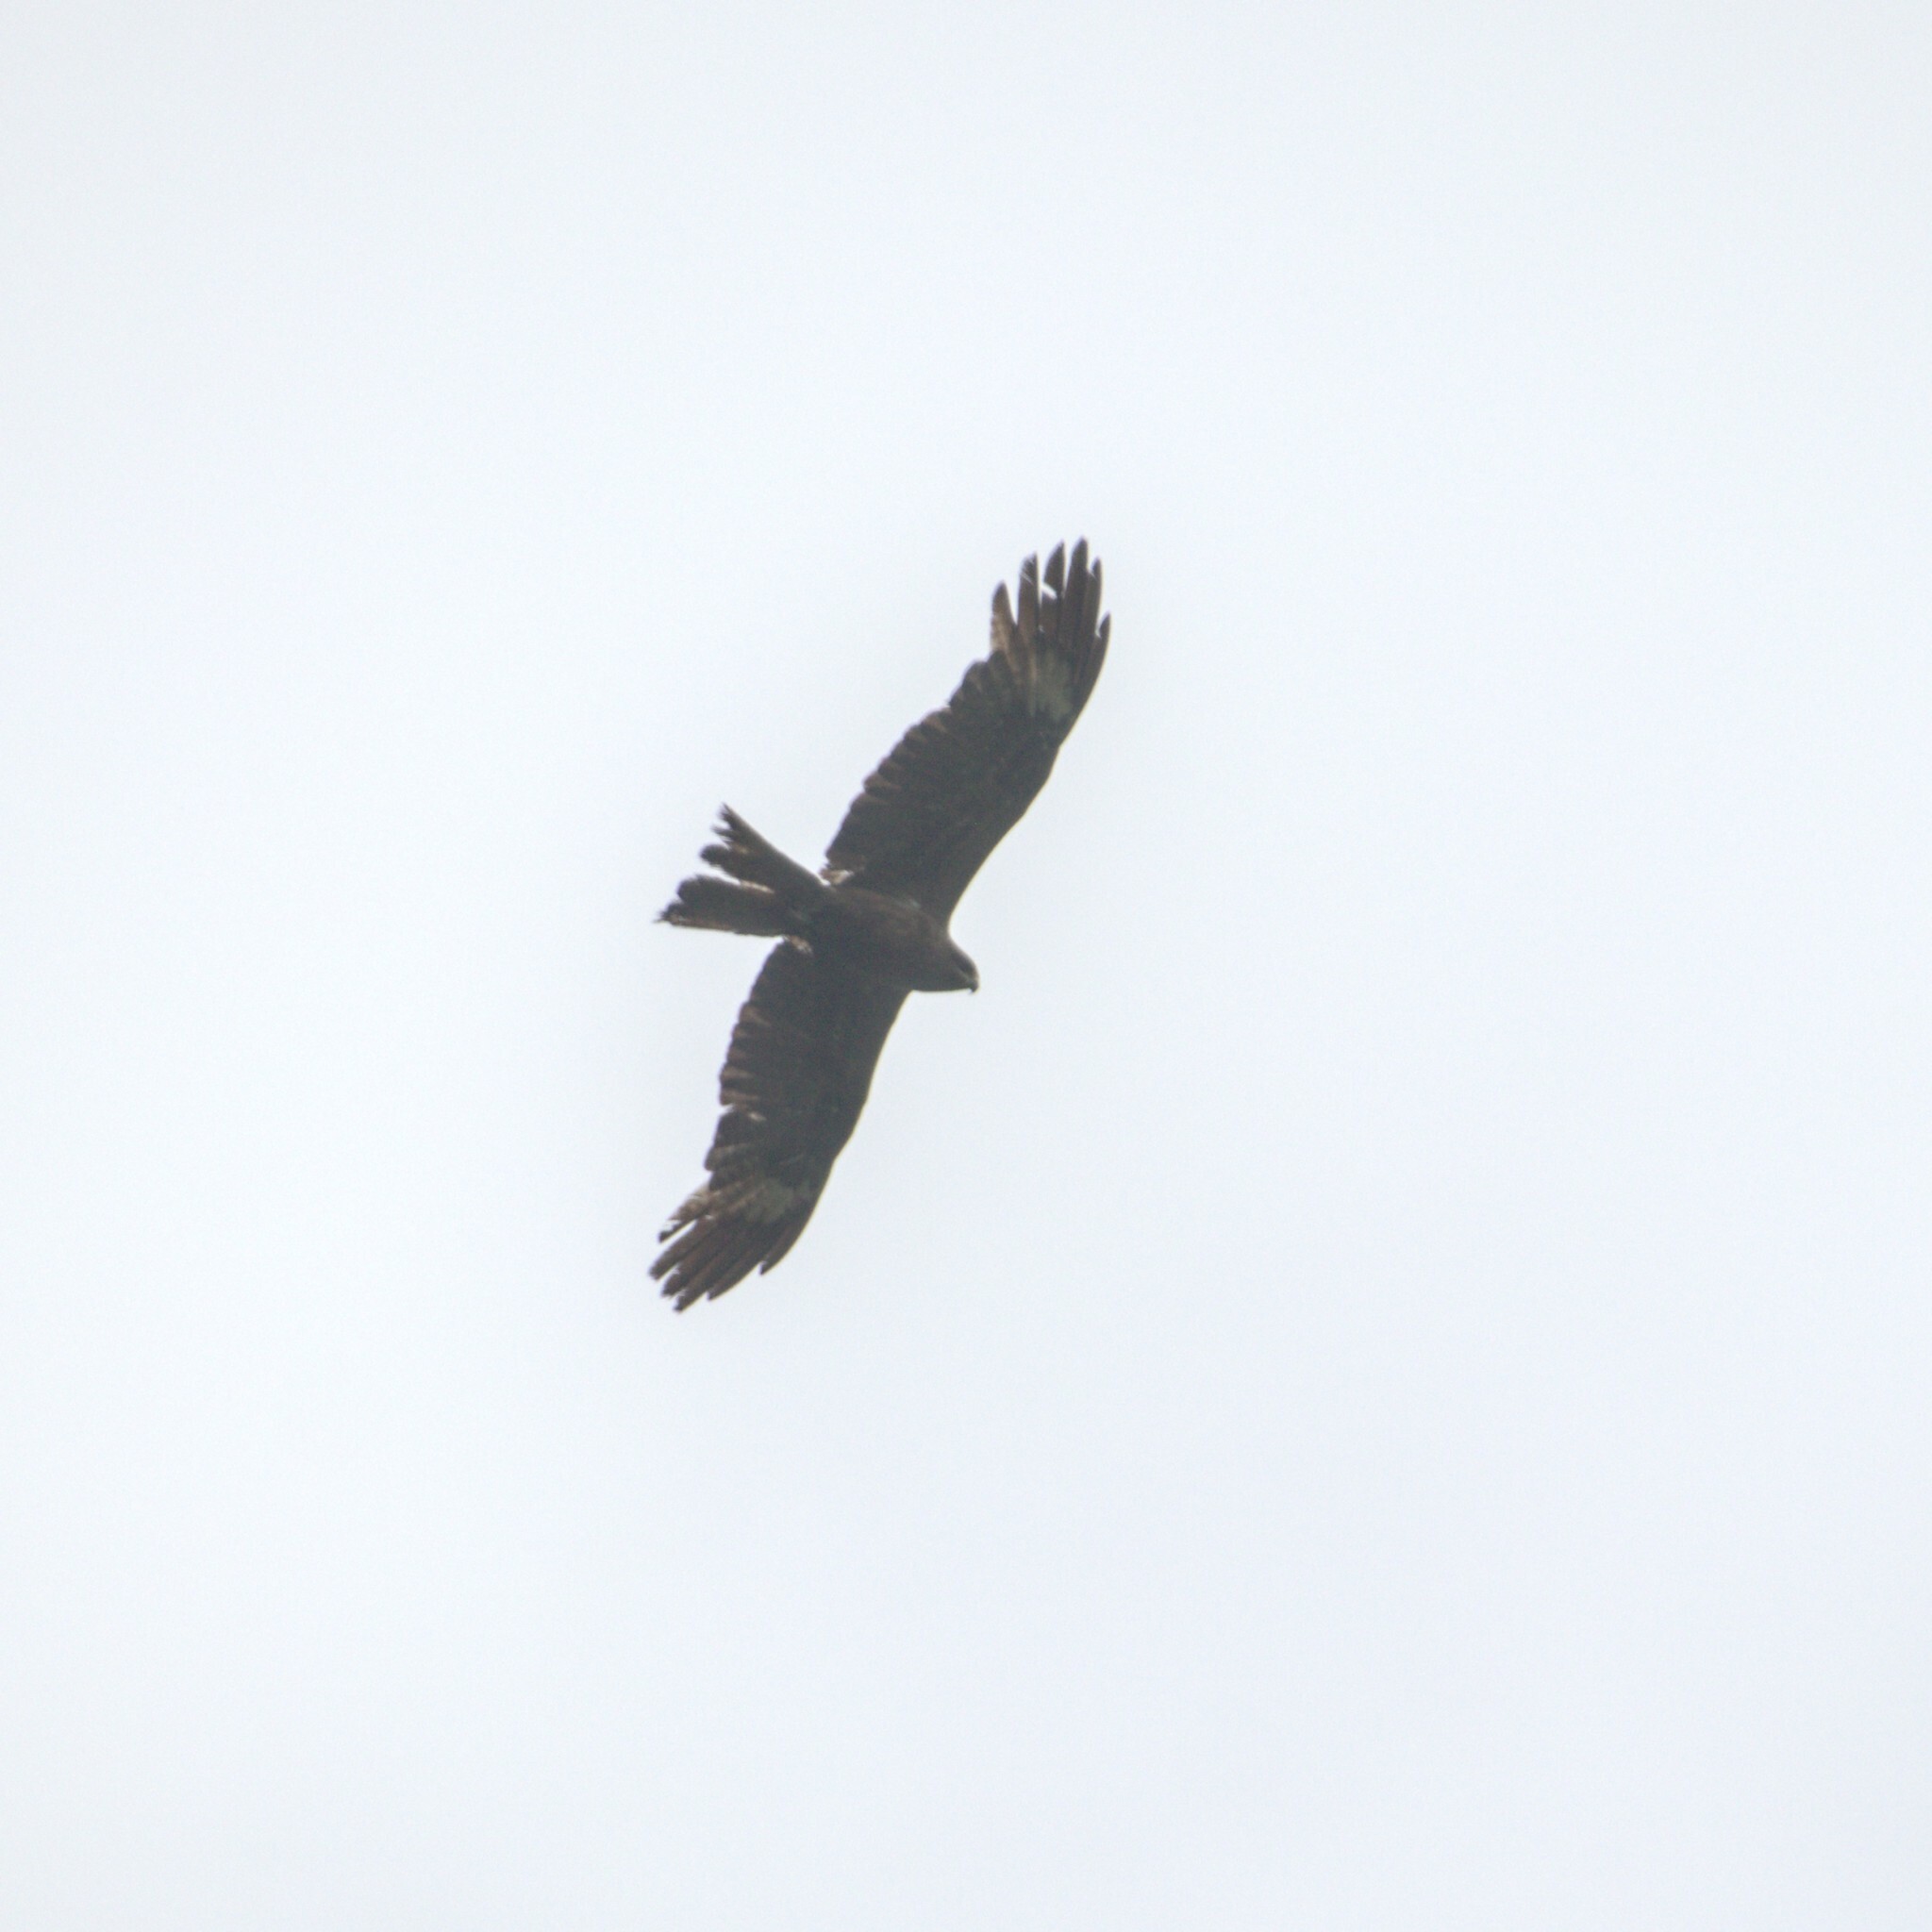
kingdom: Animalia
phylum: Chordata
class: Aves
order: Accipitriformes
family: Accipitridae
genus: Milvus
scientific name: Milvus migrans
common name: Black kite
